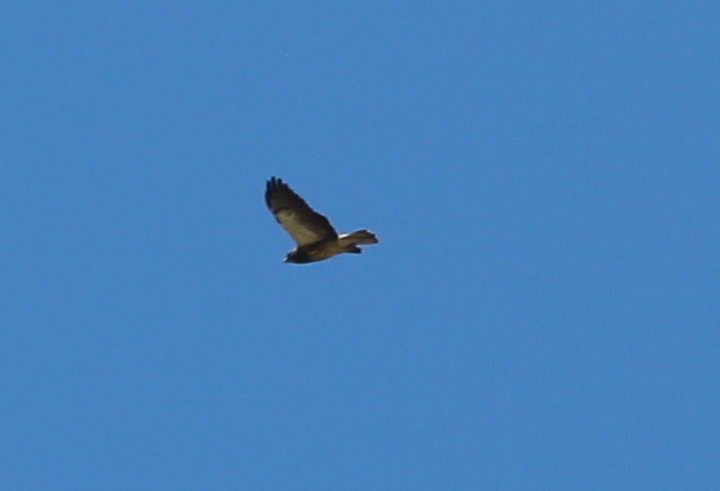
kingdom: Animalia
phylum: Chordata
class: Aves
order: Accipitriformes
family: Accipitridae
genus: Buteo
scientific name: Buteo swainsoni
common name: Swainson's hawk
